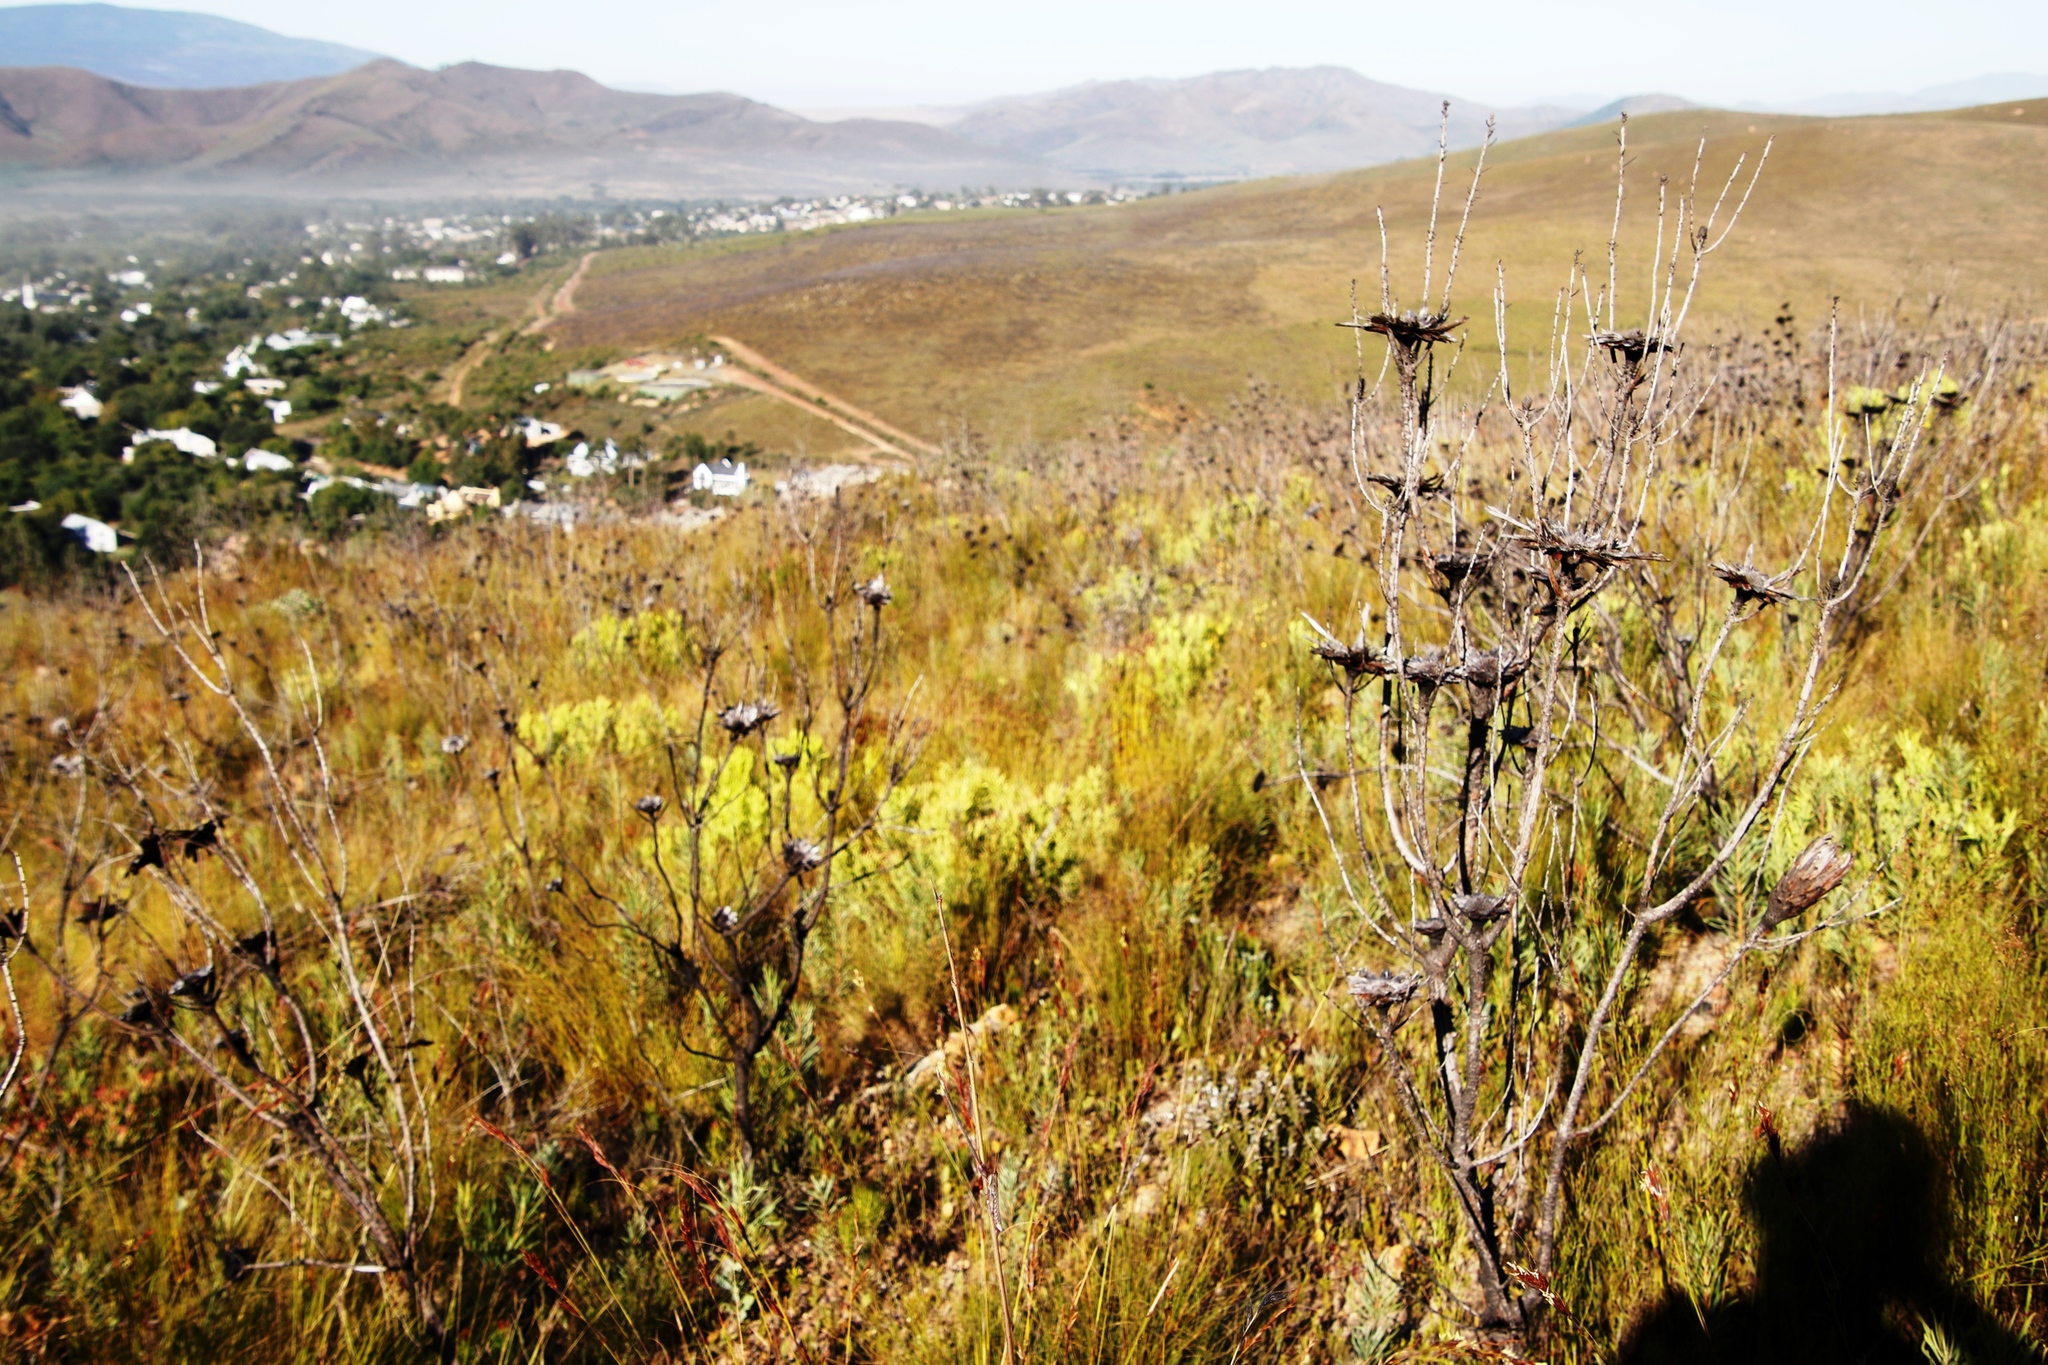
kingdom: Plantae
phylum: Tracheophyta
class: Magnoliopsida
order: Proteales
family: Proteaceae
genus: Leucadendron
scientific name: Leucadendron salignum
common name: Common sunshine conebush
